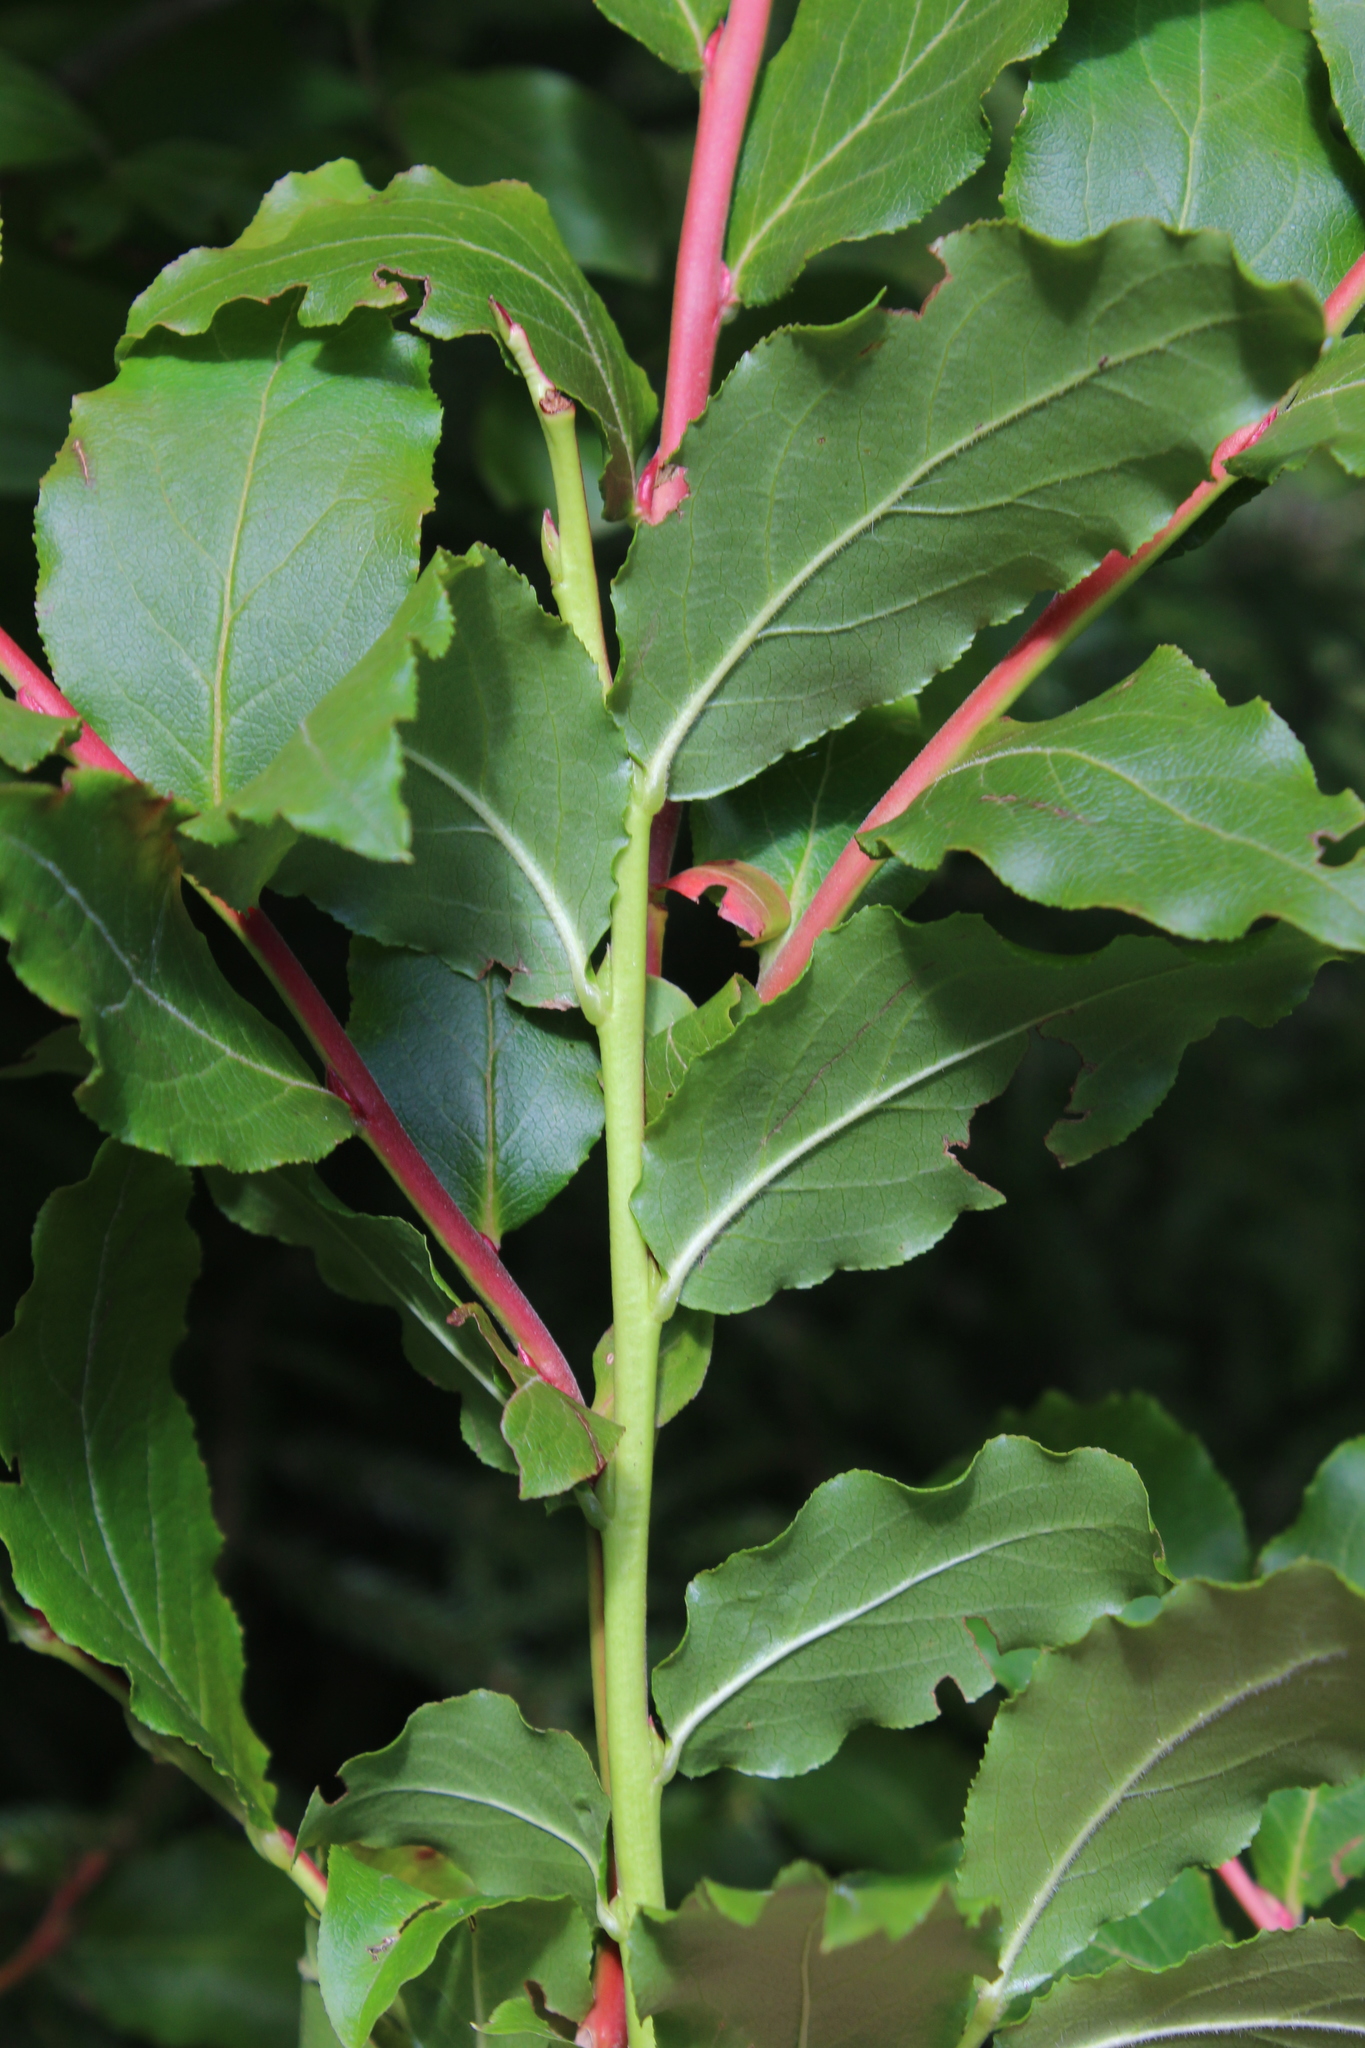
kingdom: Plantae
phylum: Tracheophyta
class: Magnoliopsida
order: Ericales
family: Ericaceae
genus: Vaccinium
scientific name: Vaccinium arctostaphylos
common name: Caucasian whortleberry
